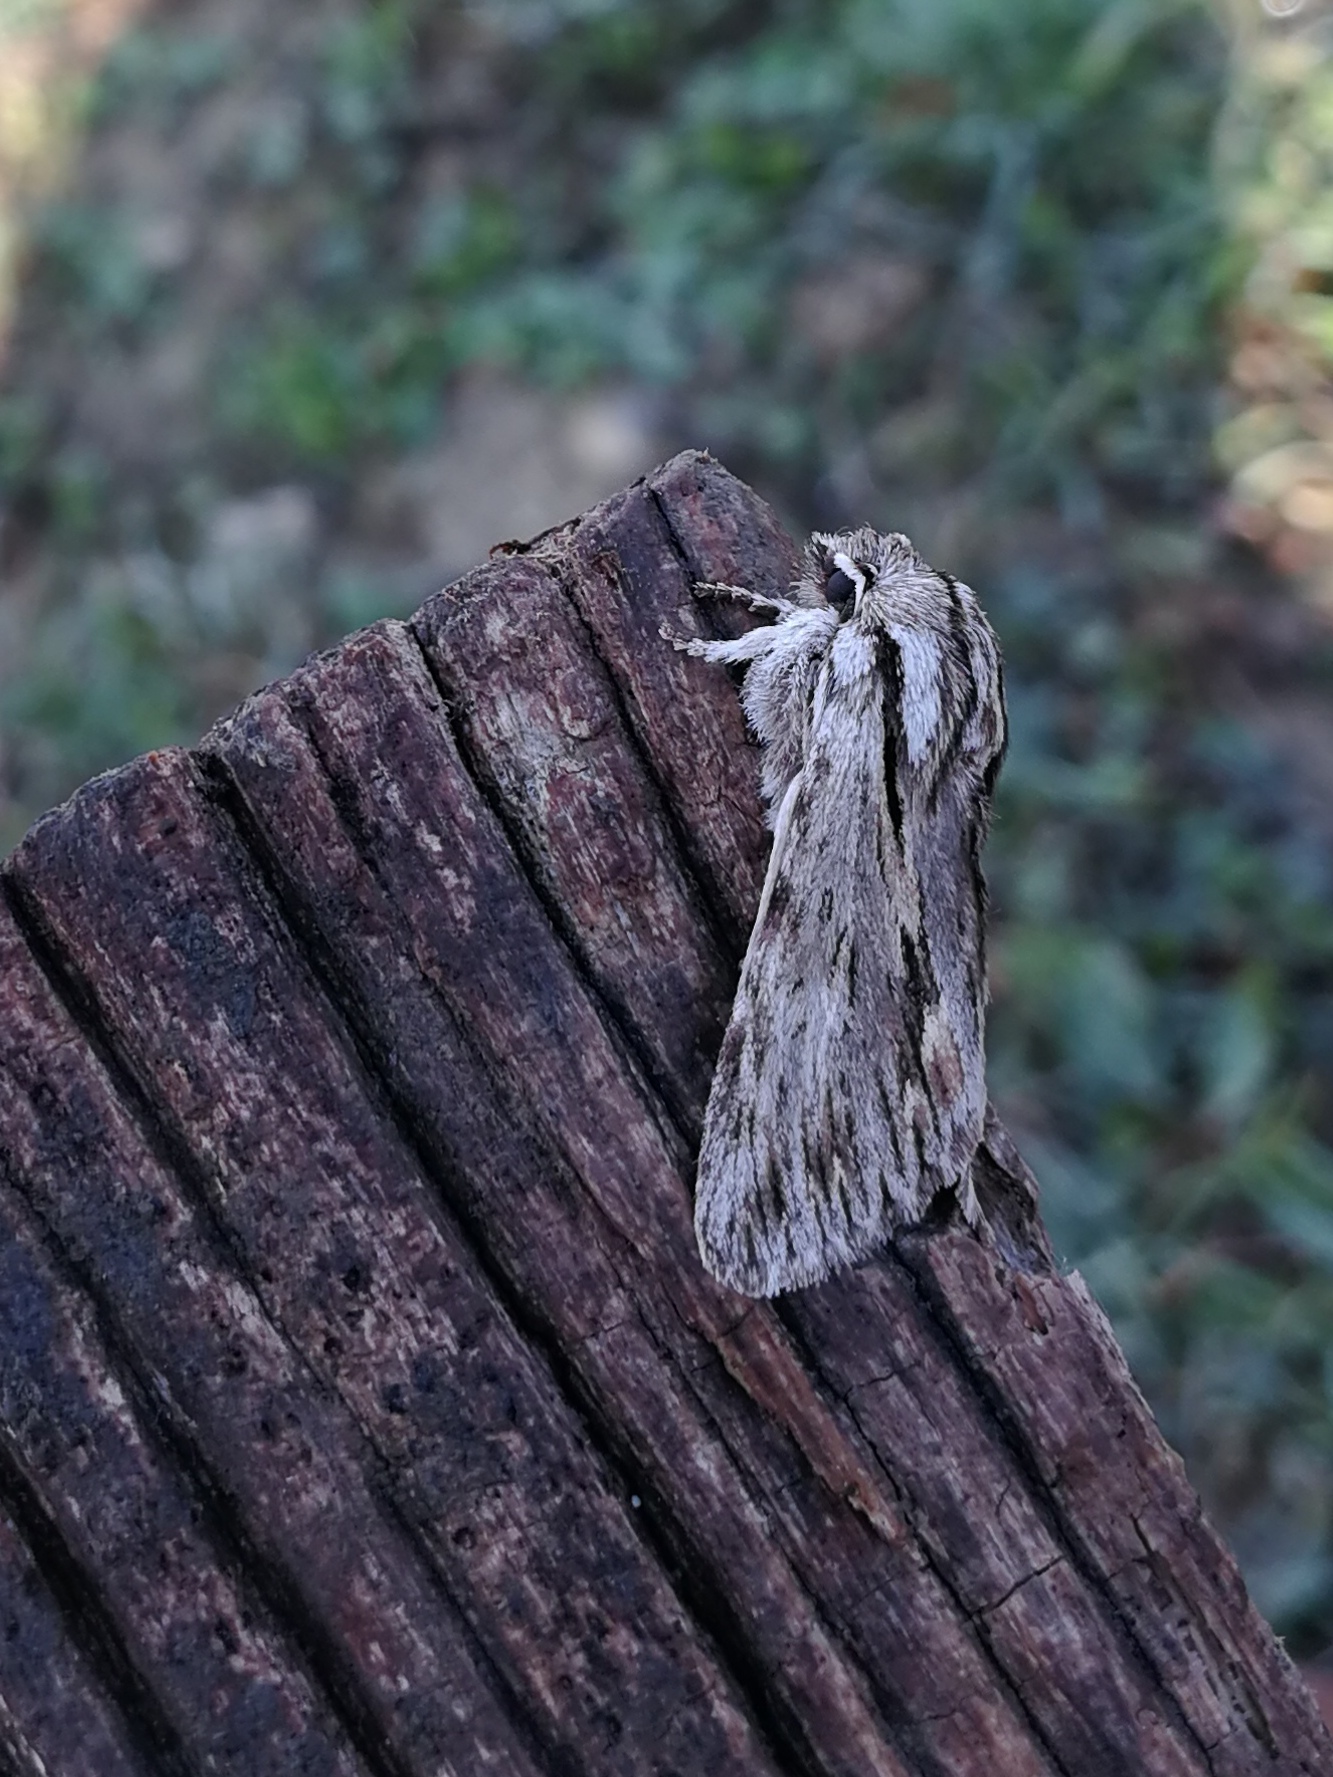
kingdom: Animalia
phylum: Arthropoda
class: Insecta
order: Lepidoptera
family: Noctuidae
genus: Asteroscopus
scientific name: Asteroscopus sphinx
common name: The sprawler
